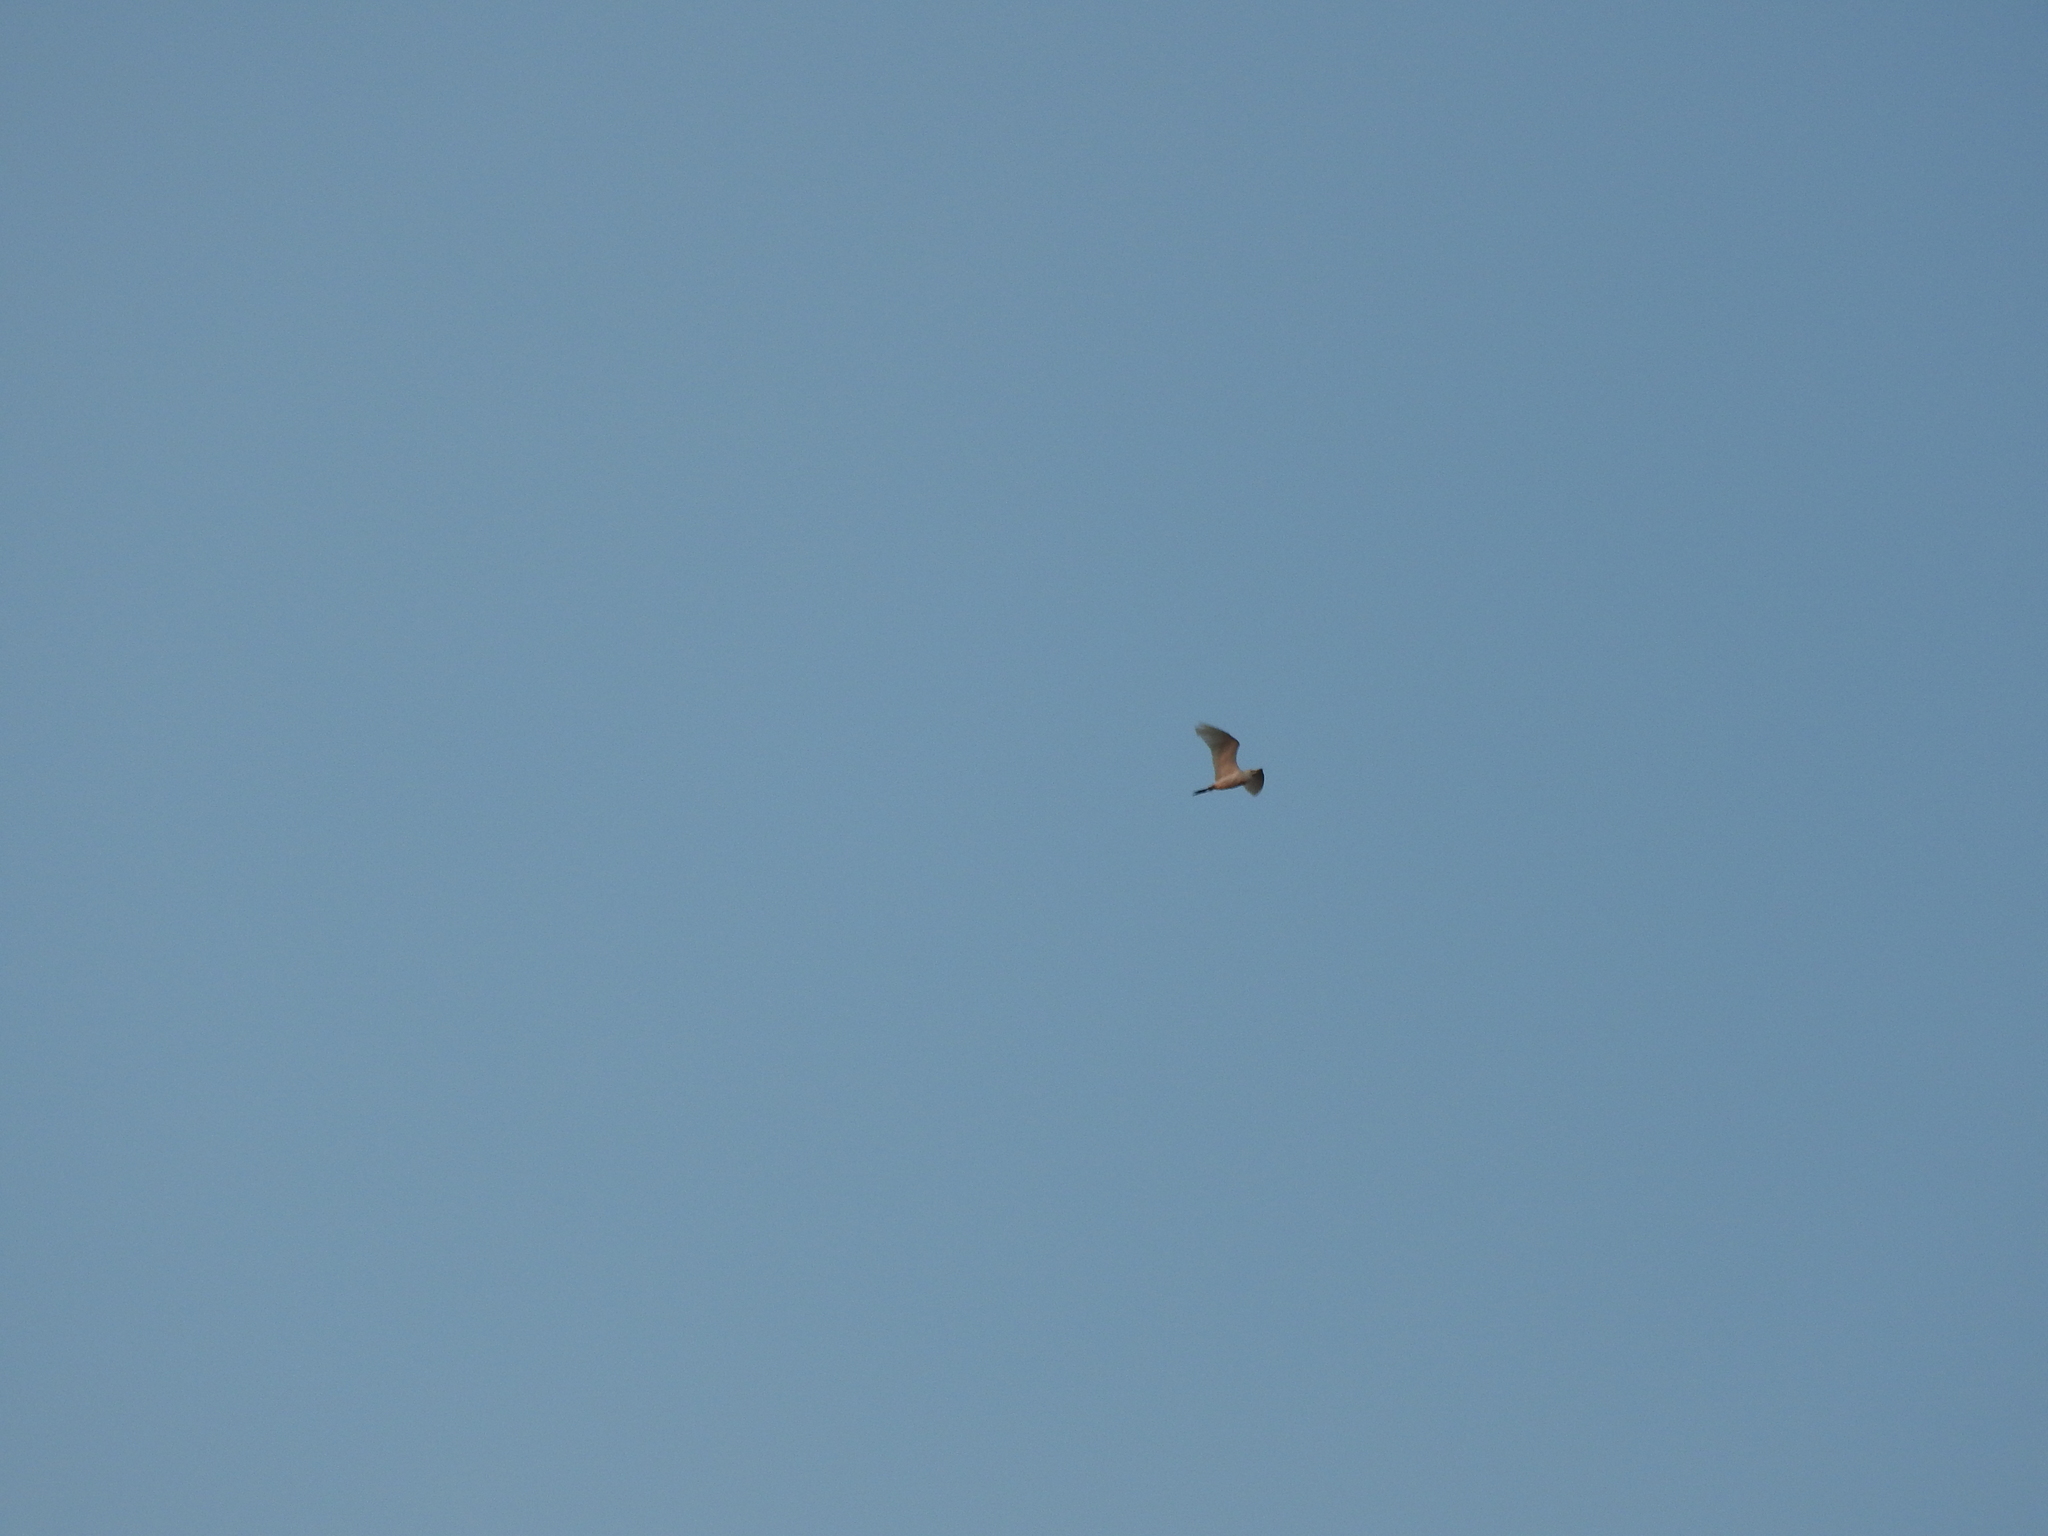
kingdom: Animalia
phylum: Chordata
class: Aves
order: Pelecaniformes
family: Ardeidae
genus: Bubulcus
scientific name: Bubulcus ibis
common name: Cattle egret
